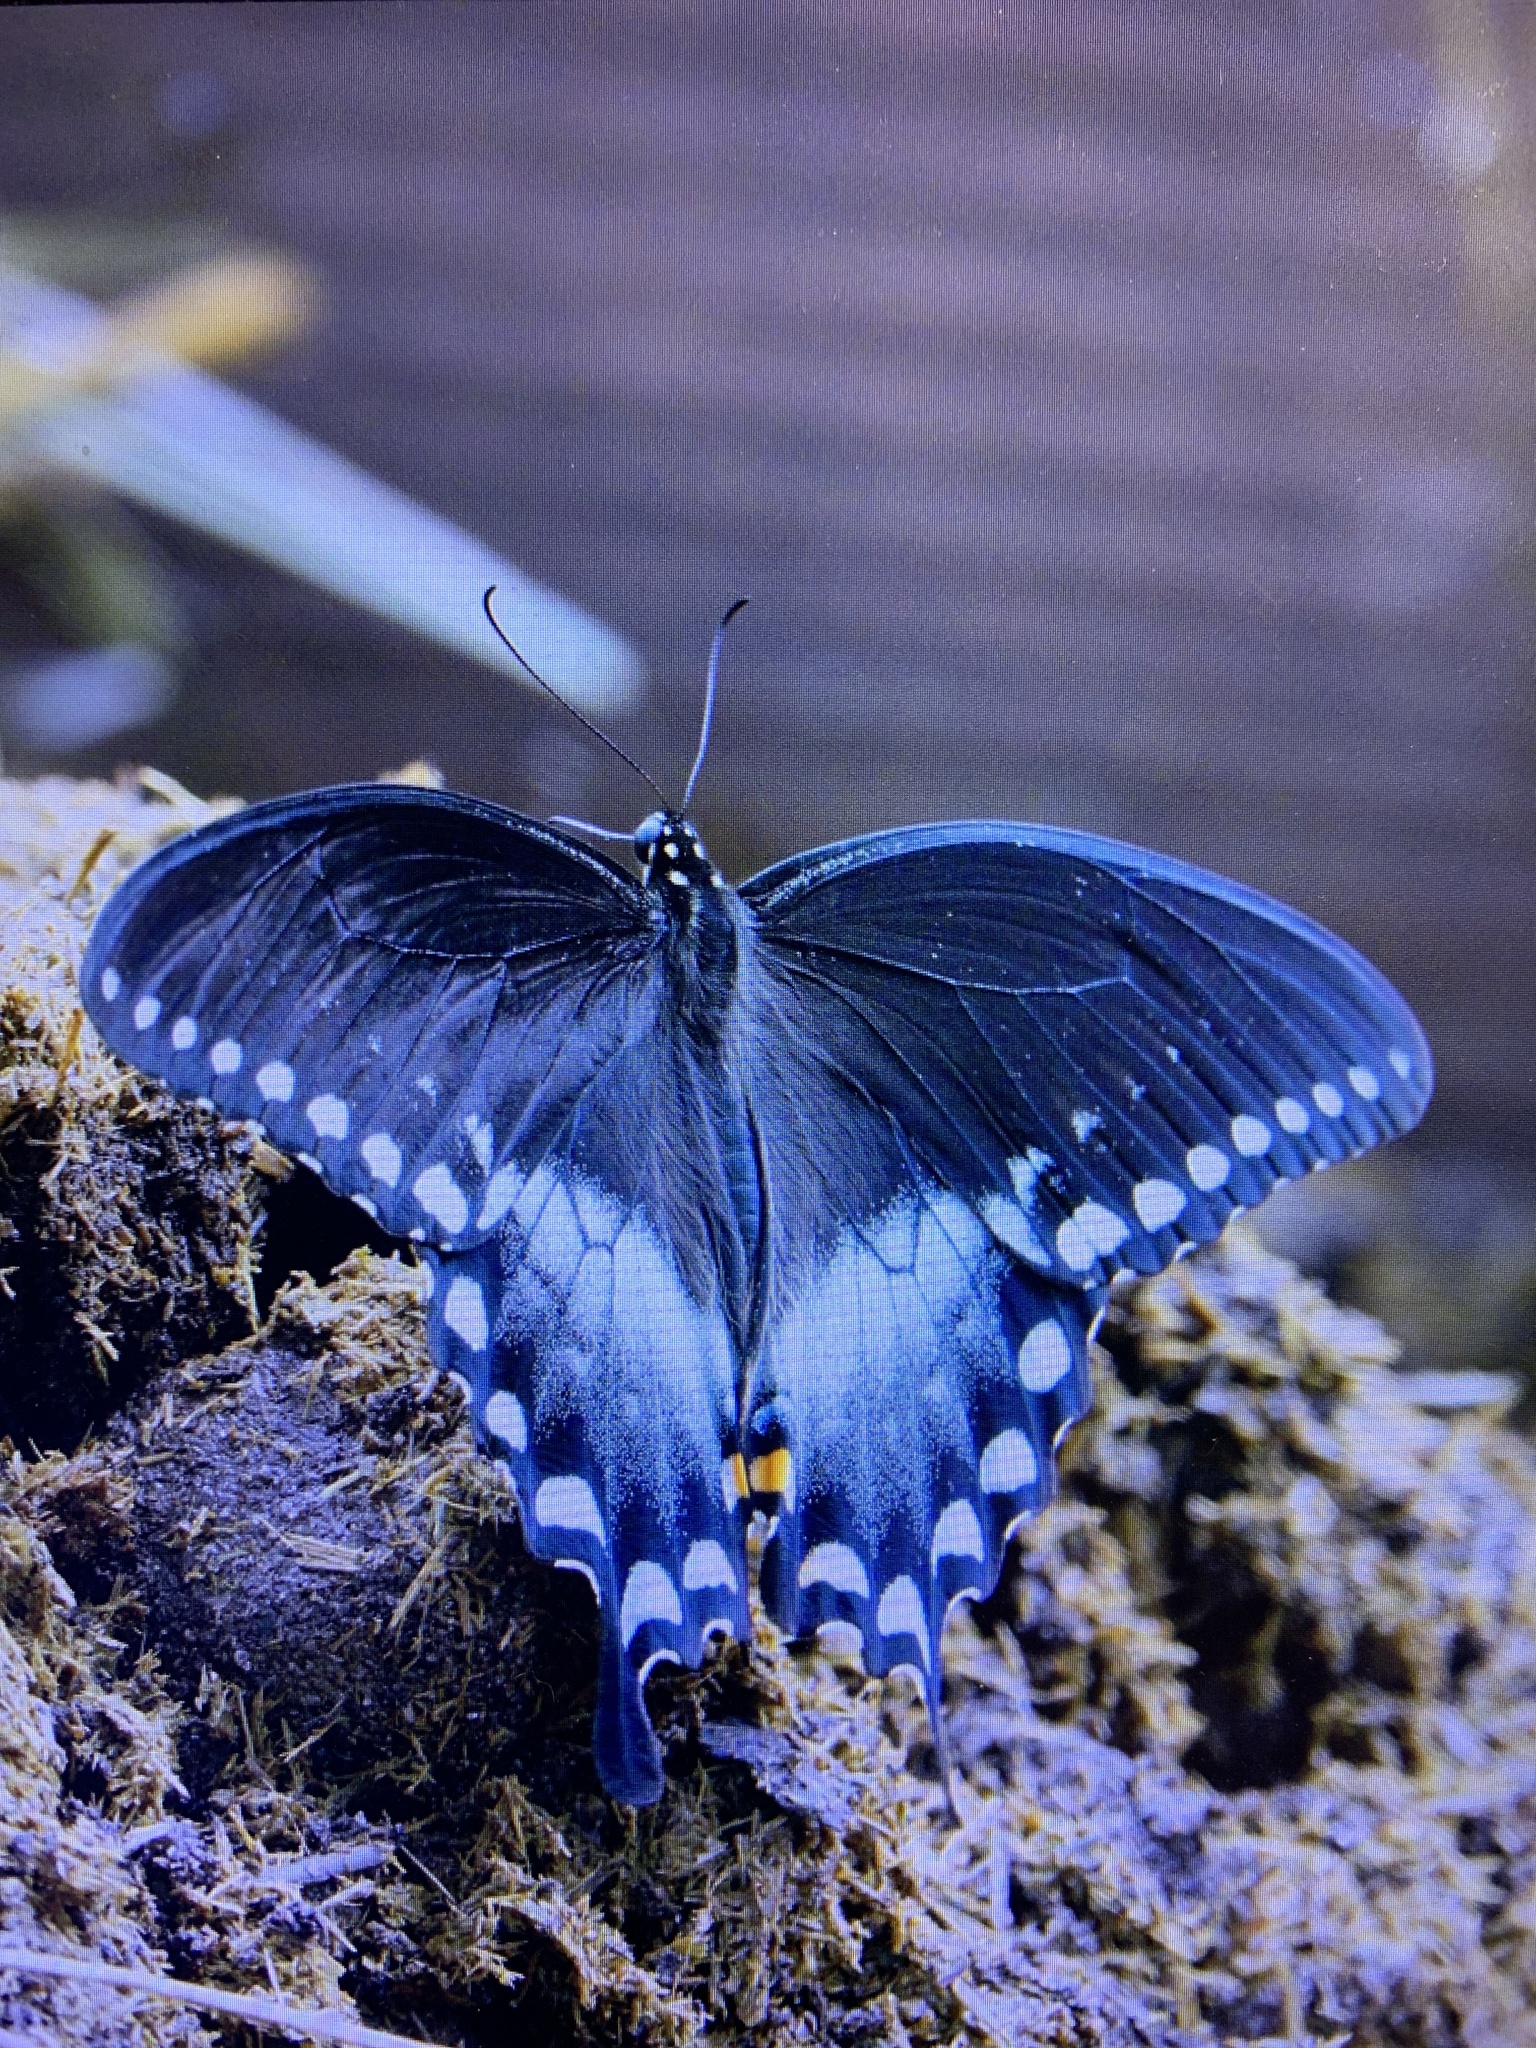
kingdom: Animalia
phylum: Arthropoda
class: Insecta
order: Lepidoptera
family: Papilionidae
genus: Papilio
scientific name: Papilio troilus
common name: Spicebush swallowtail
